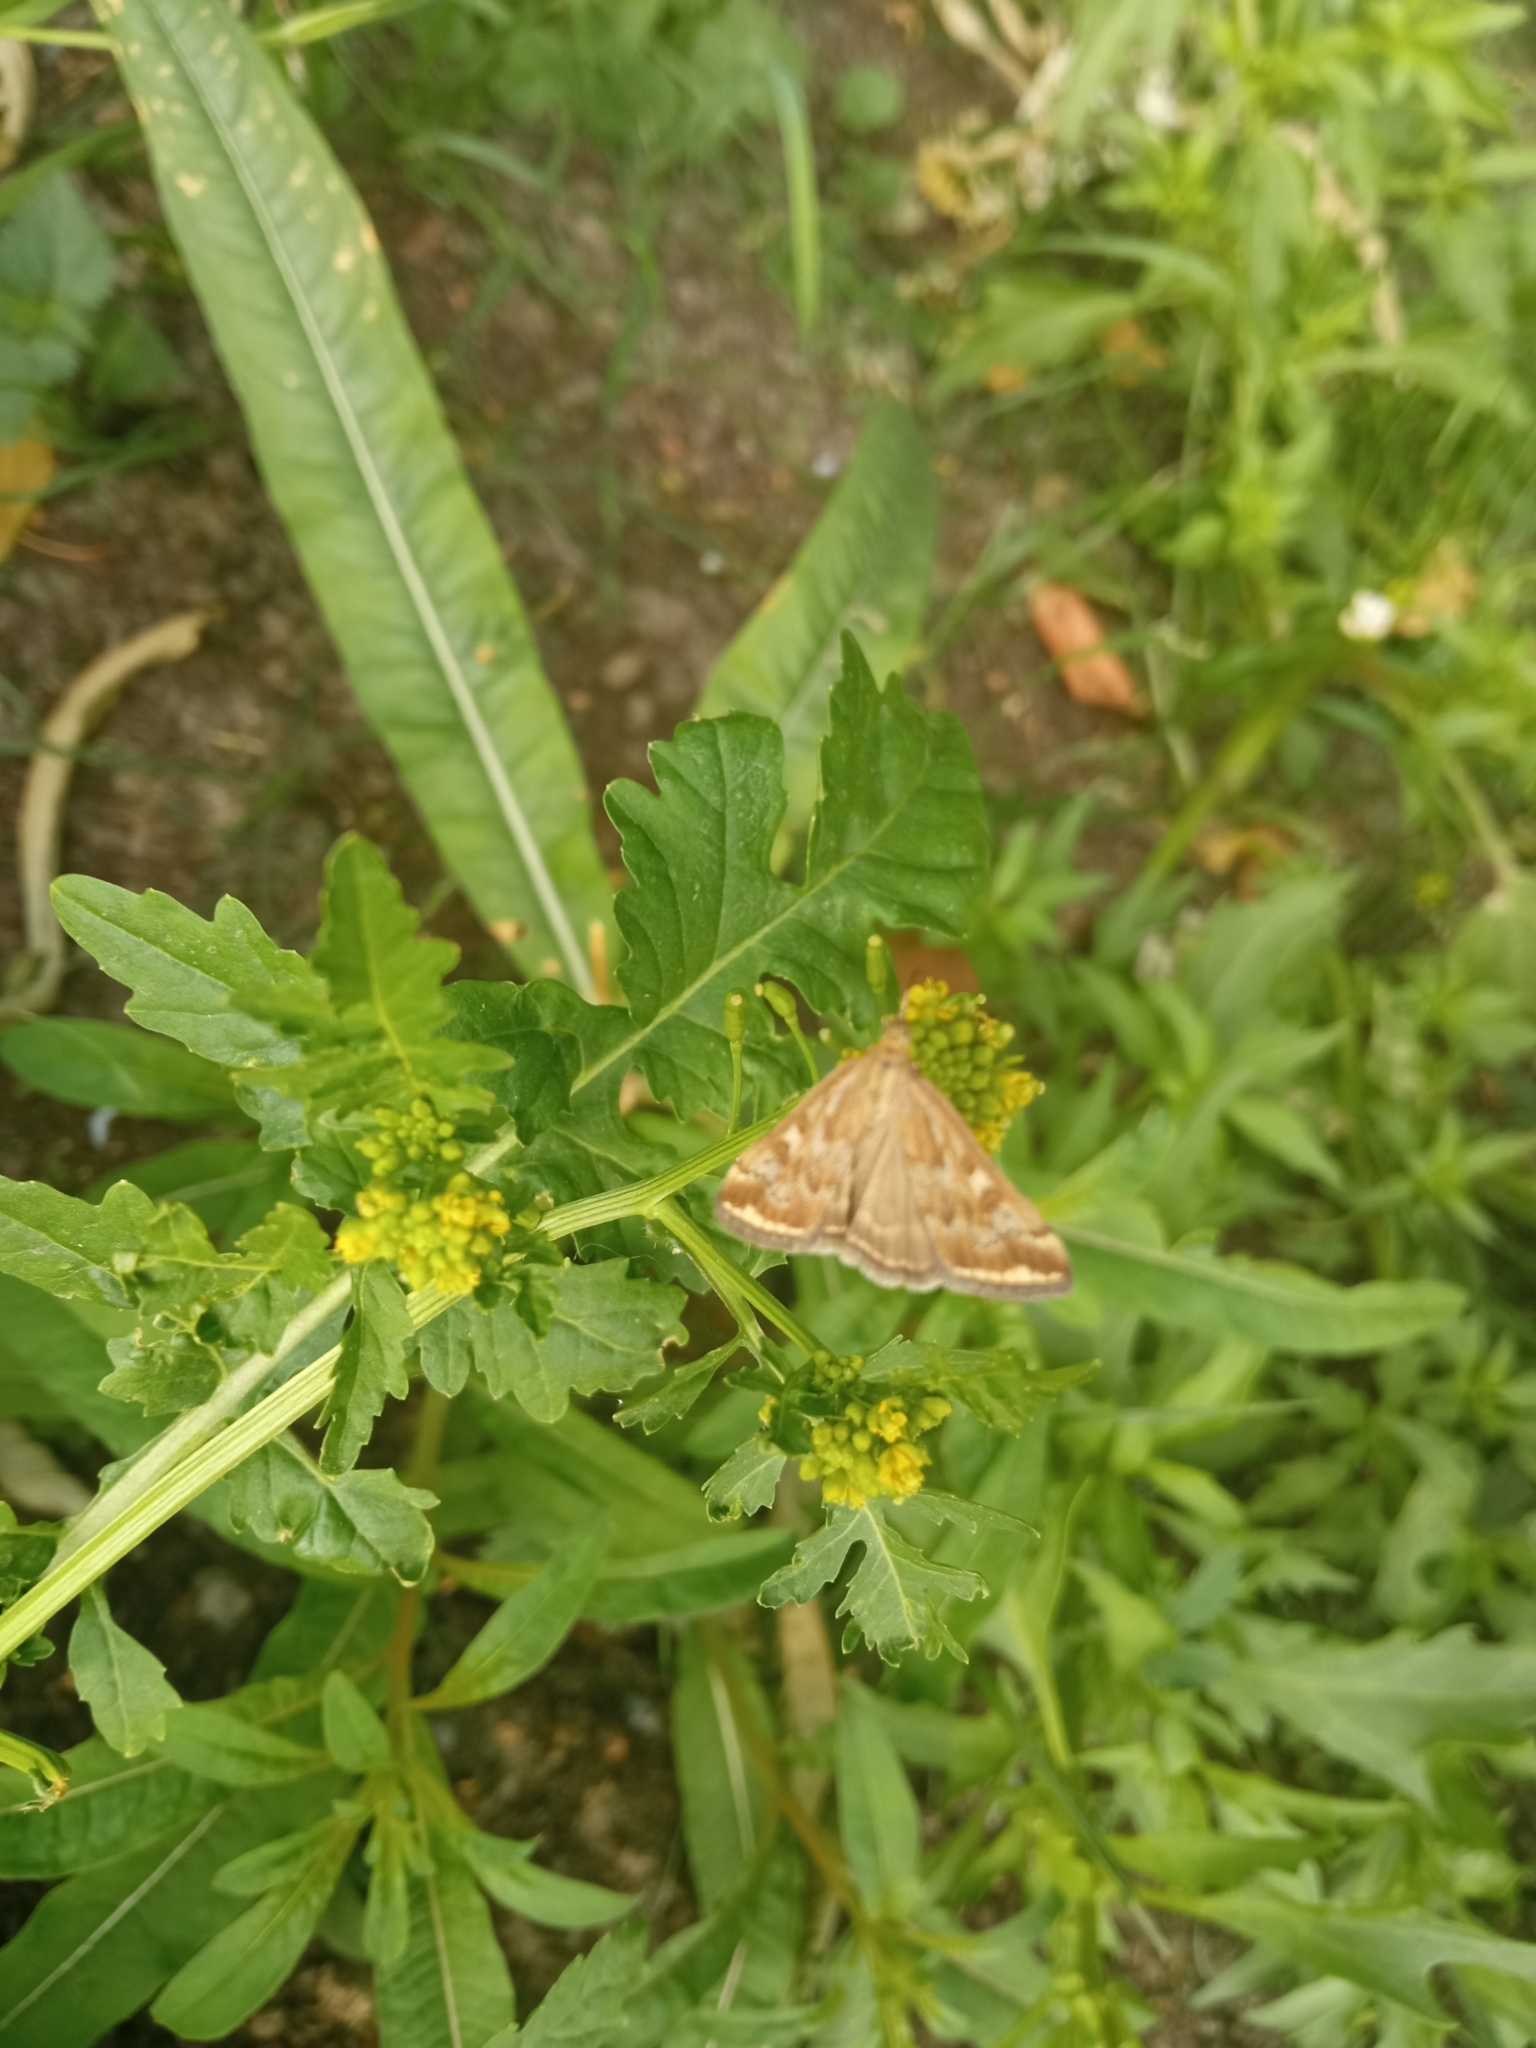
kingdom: Animalia
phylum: Arthropoda
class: Insecta
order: Lepidoptera
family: Crambidae
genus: Loxostege
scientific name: Loxostege sticticalis
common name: Crambid moth
